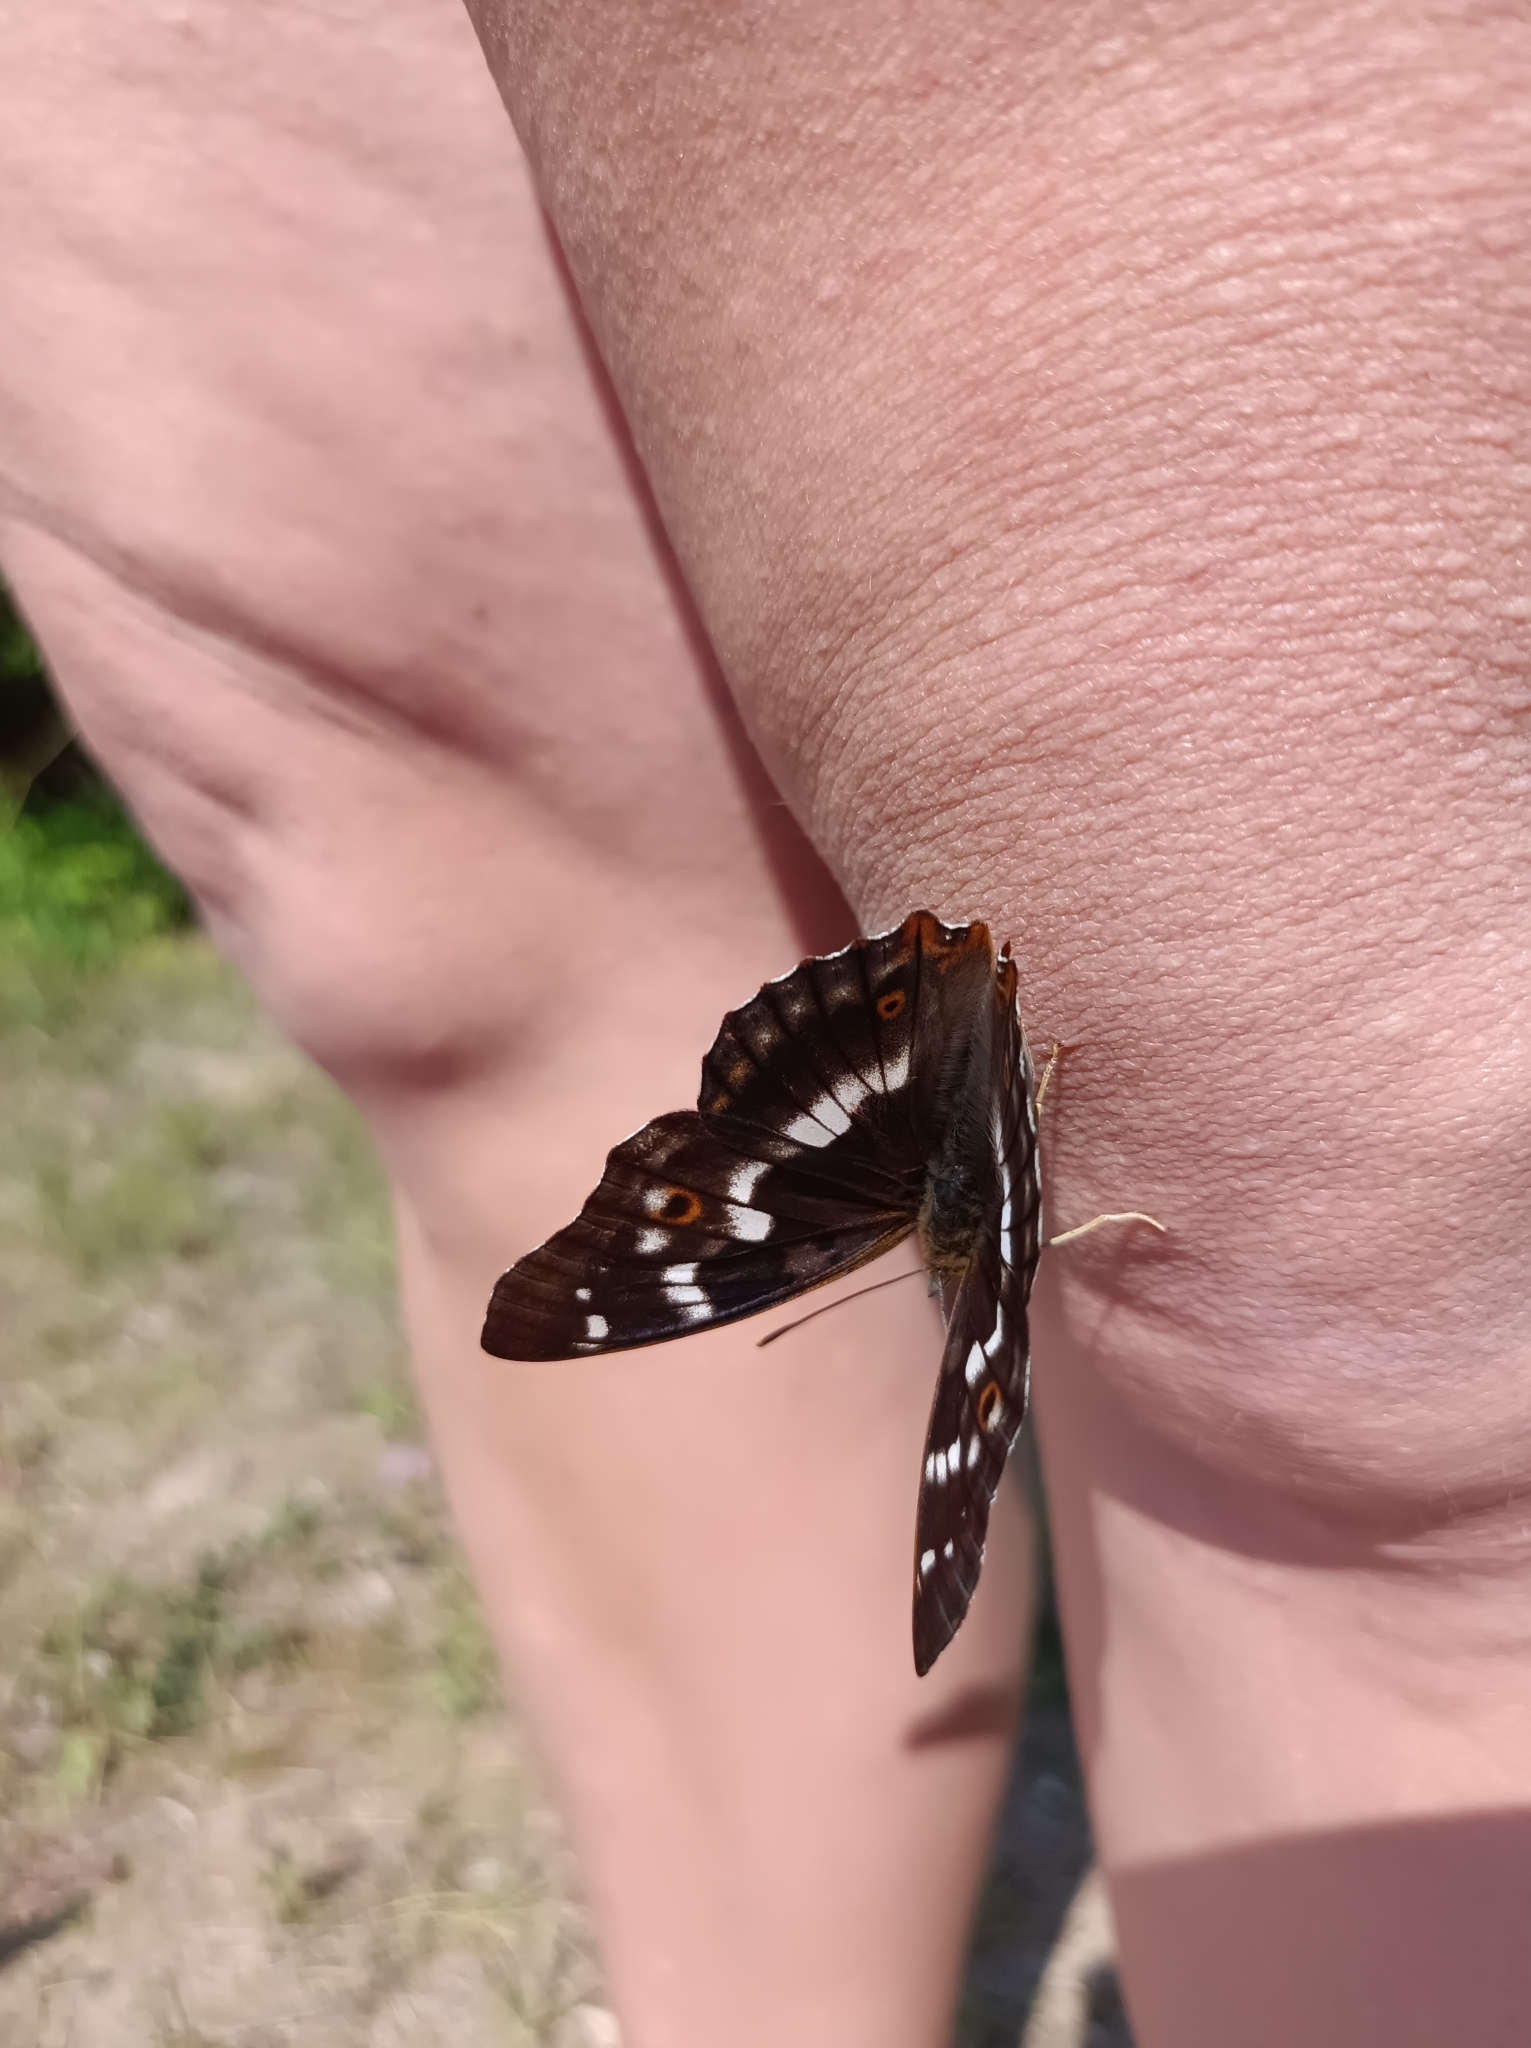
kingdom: Animalia
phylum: Arthropoda
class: Insecta
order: Lepidoptera
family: Nymphalidae
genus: Apatura
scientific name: Apatura ilia
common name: Lesser purple emperor
